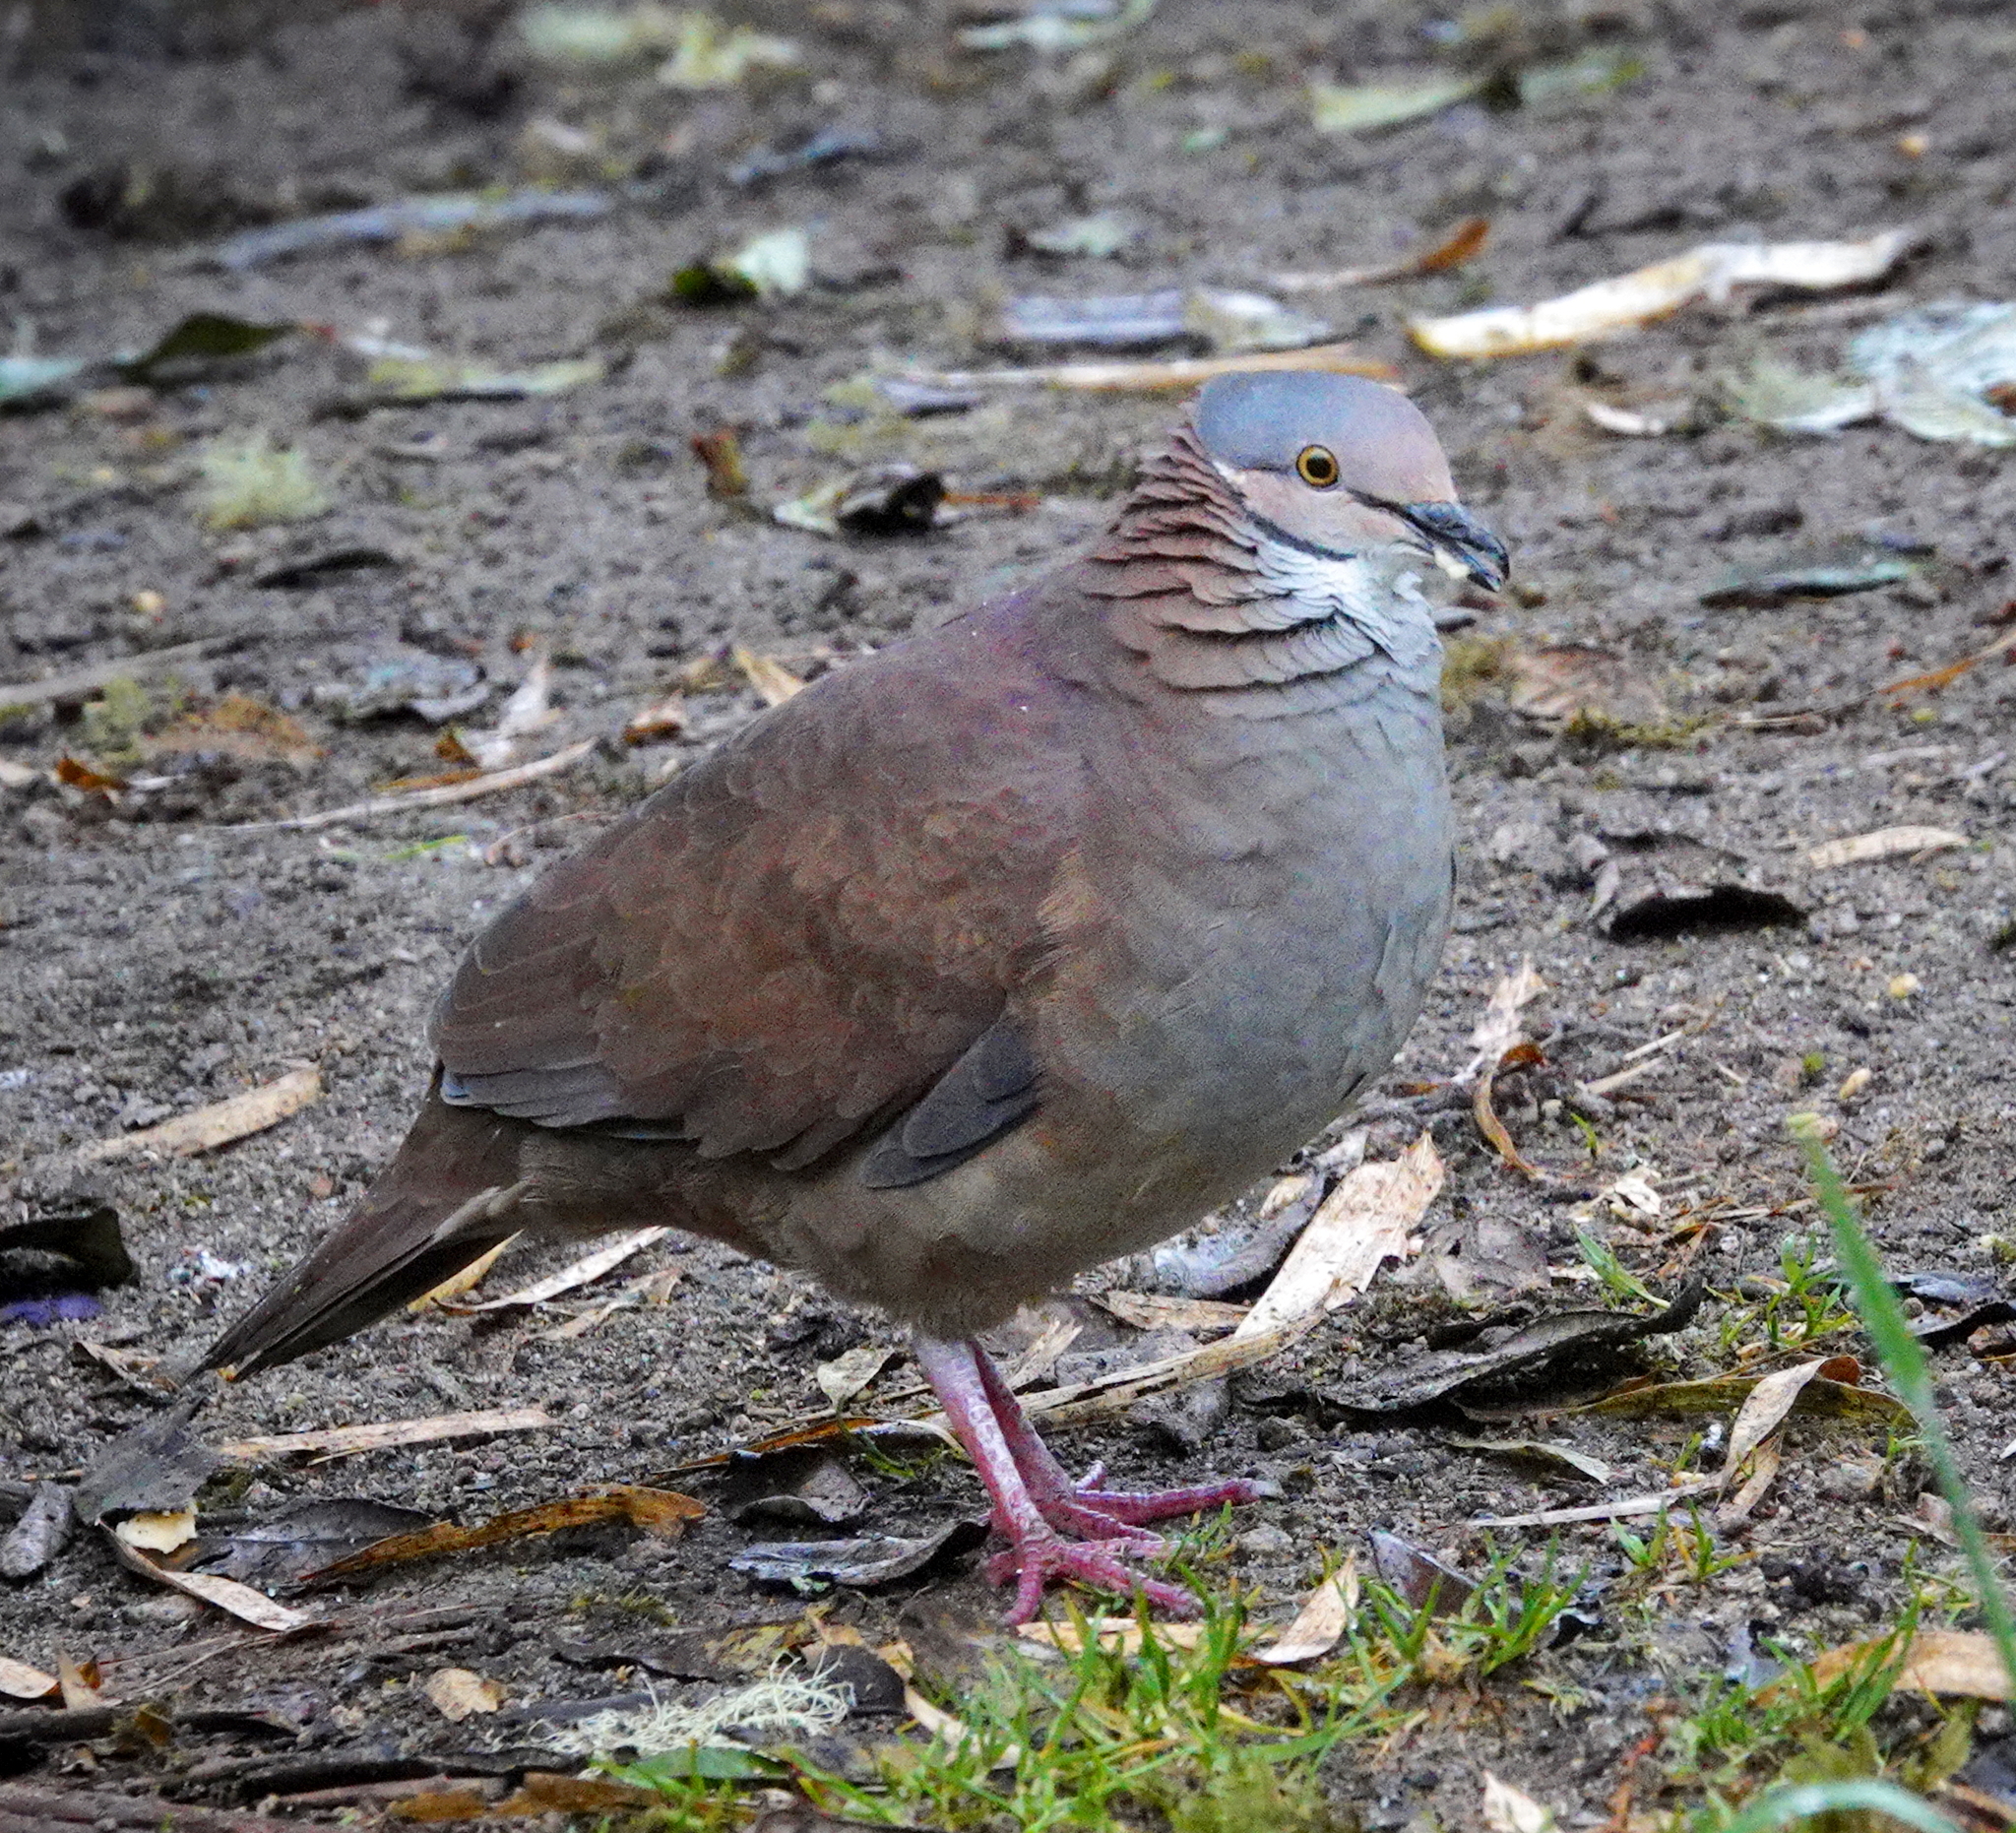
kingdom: Animalia
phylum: Chordata
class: Aves
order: Columbiformes
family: Columbidae
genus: Zentrygon
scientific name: Zentrygon frenata
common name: White-throated quail-dove
